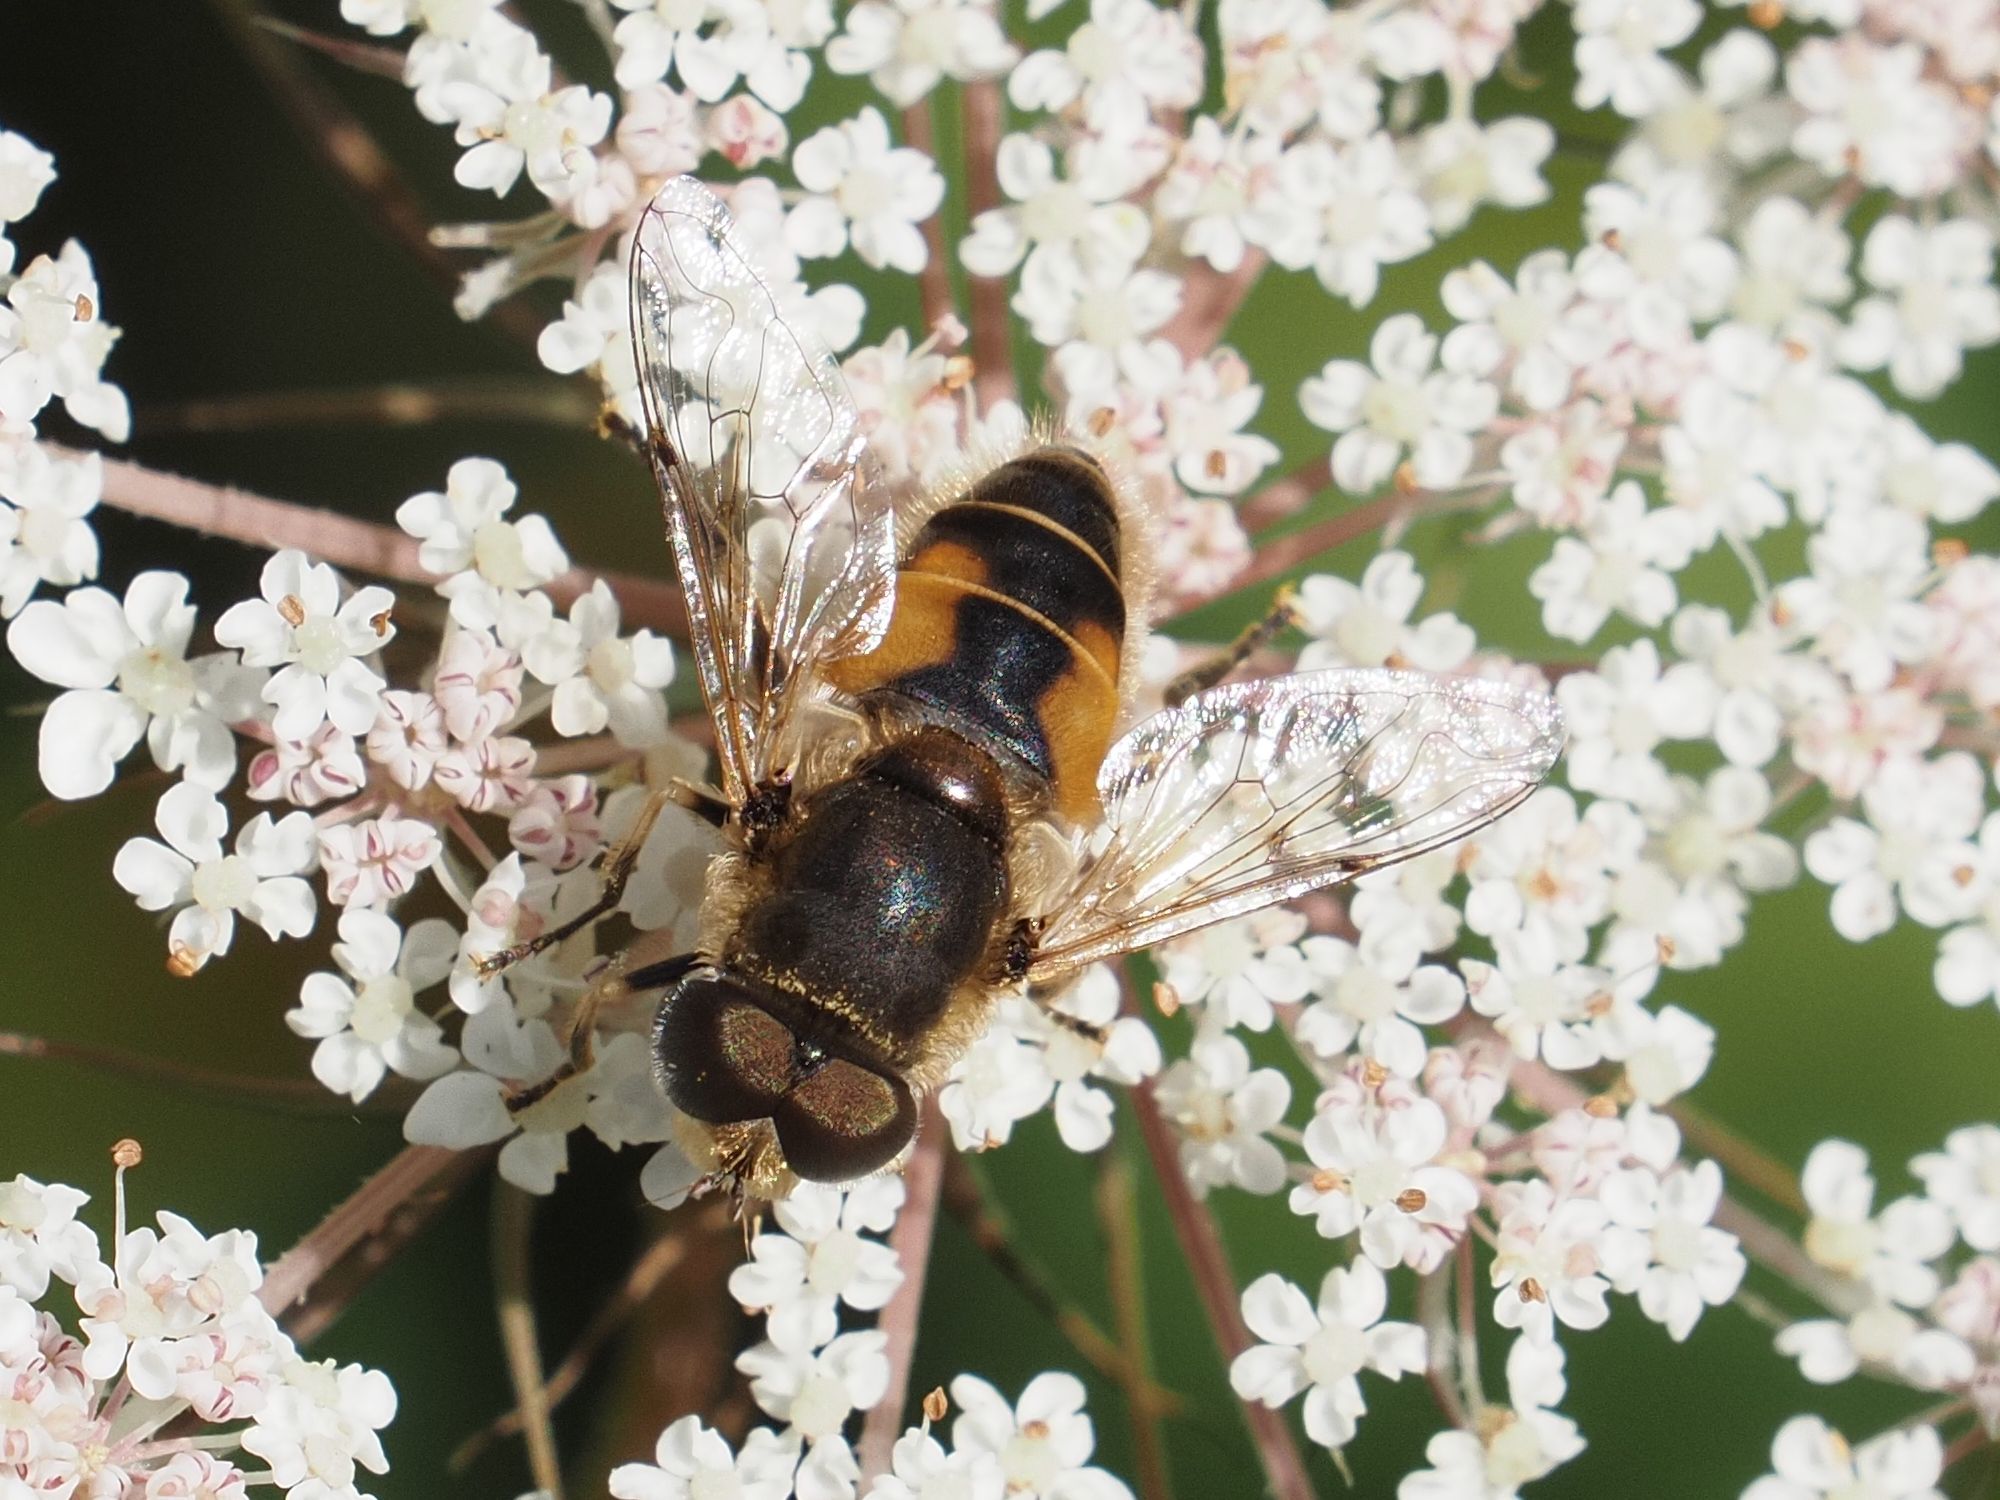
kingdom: Animalia
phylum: Arthropoda
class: Insecta
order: Diptera
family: Syrphidae
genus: Eristalis
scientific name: Eristalis arbustorum
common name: Hover fly
